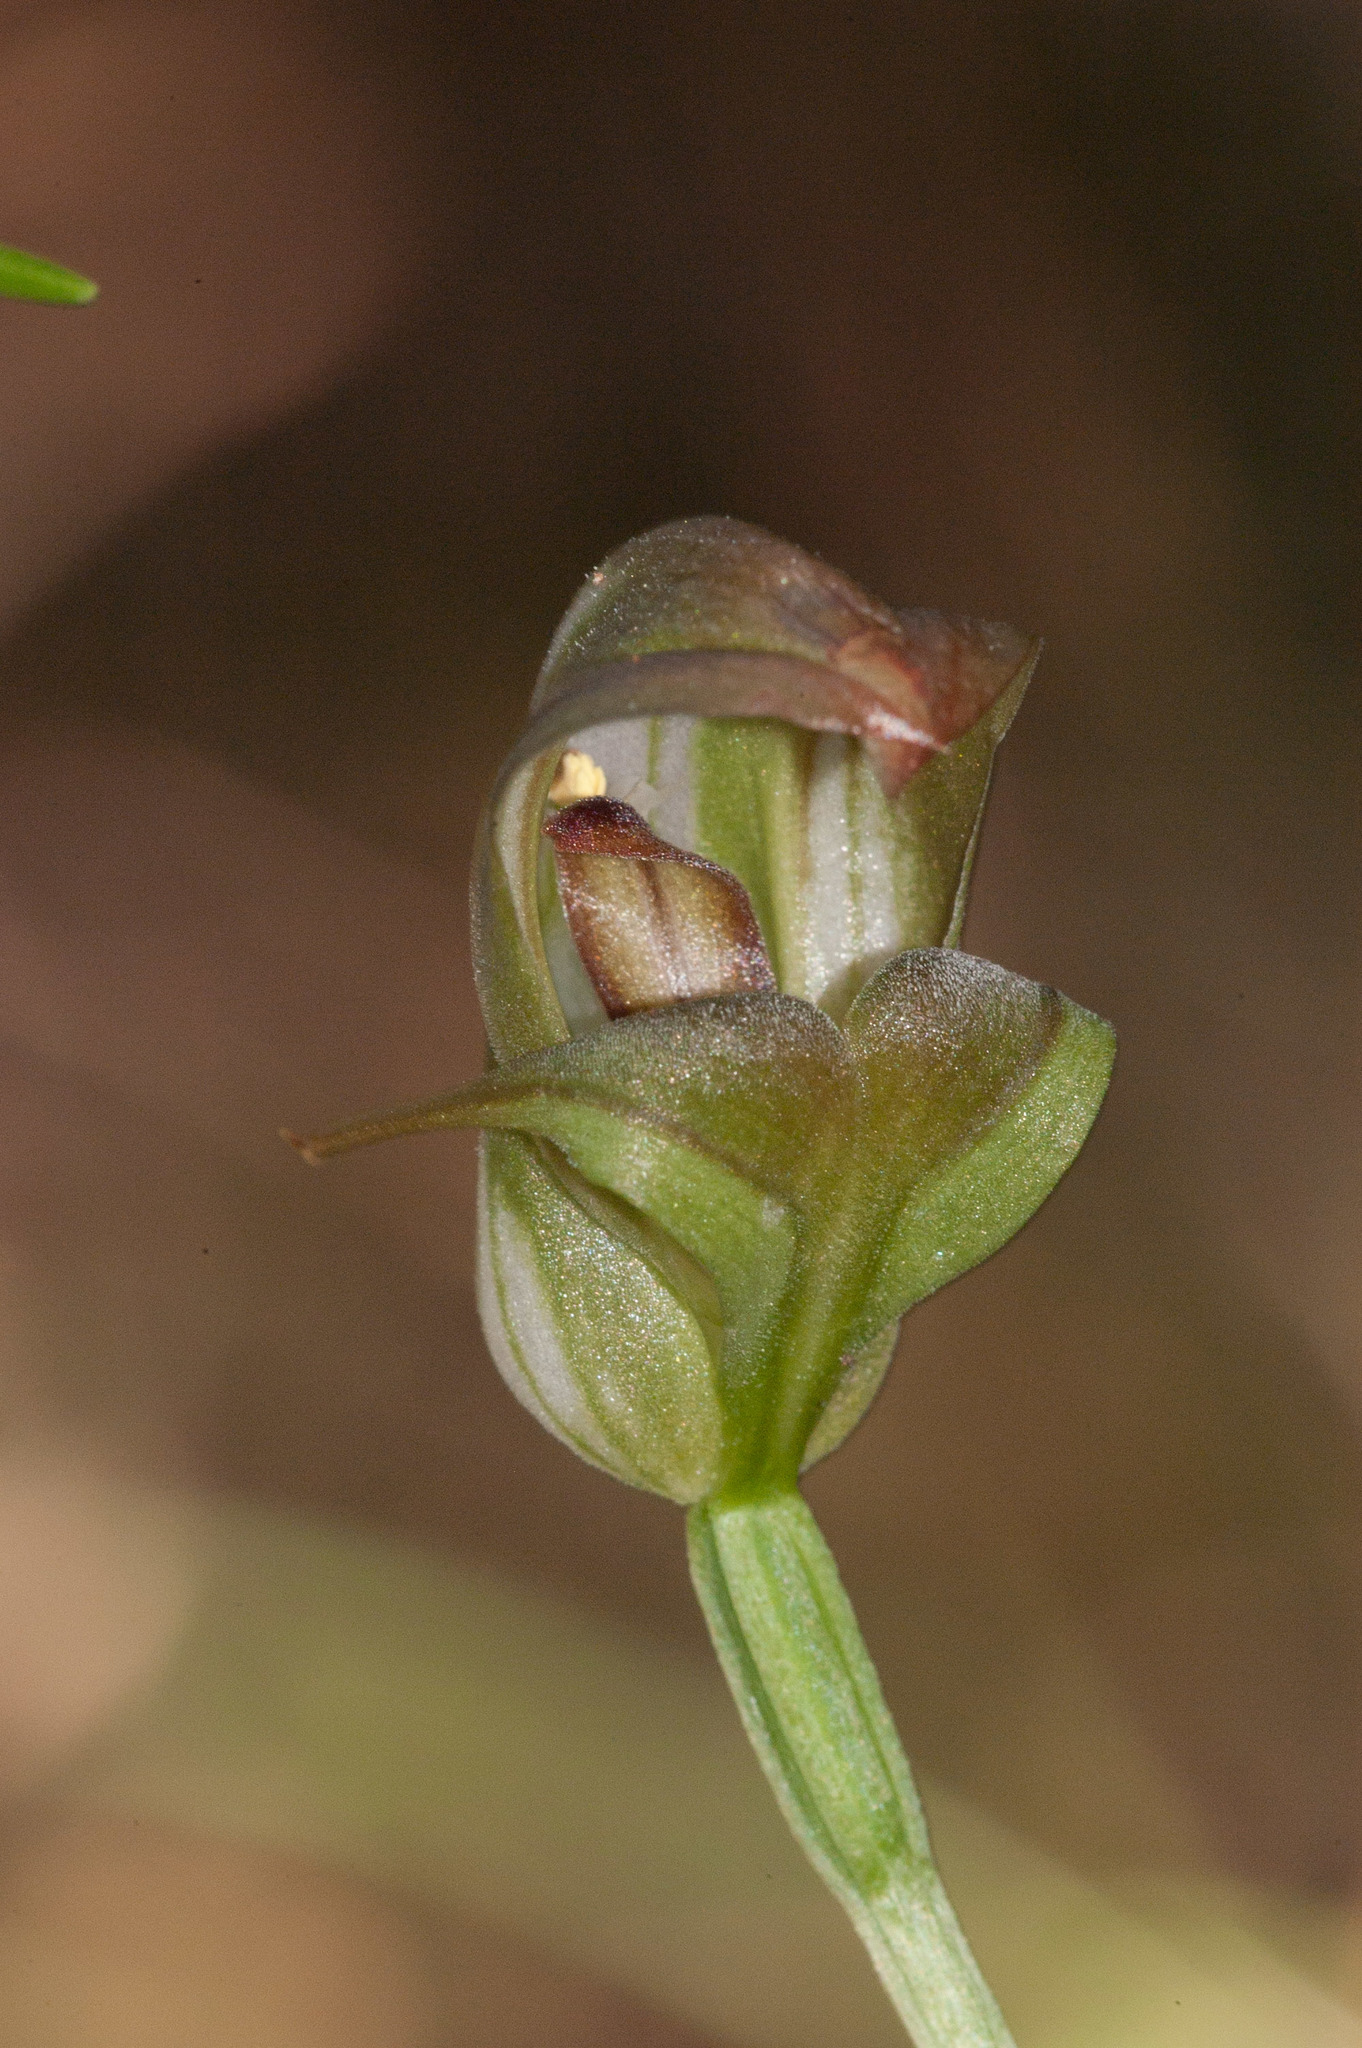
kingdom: Plantae
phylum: Tracheophyta
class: Liliopsida
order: Asparagales
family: Orchidaceae
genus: Pterostylis
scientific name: Pterostylis curta
